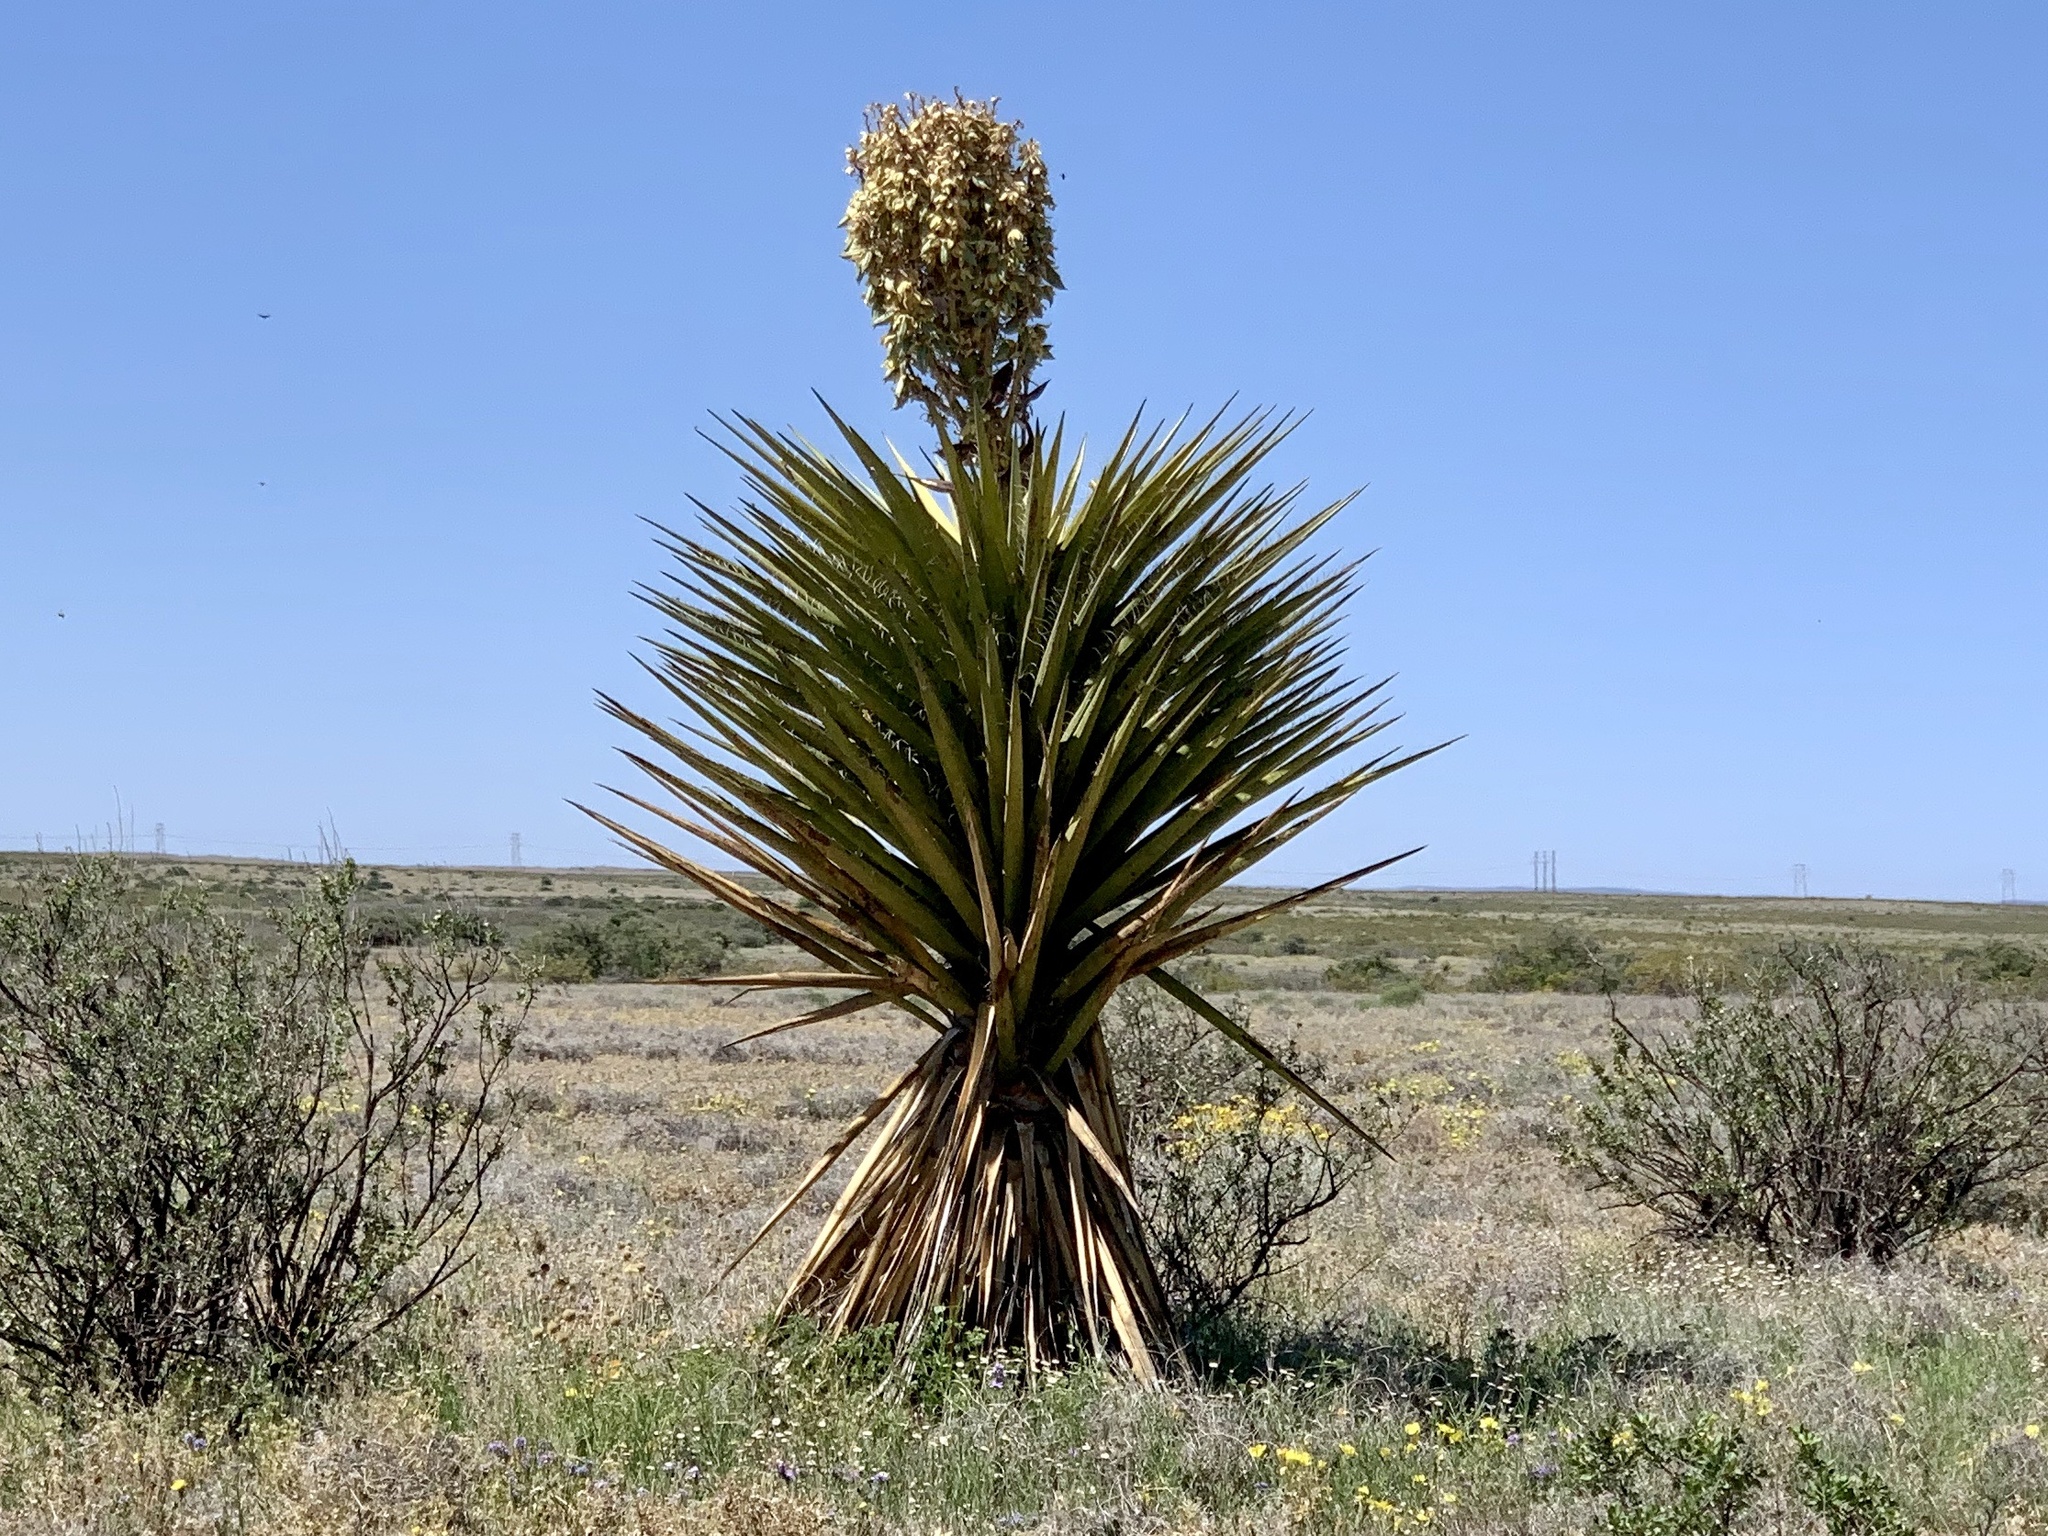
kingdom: Plantae
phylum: Tracheophyta
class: Liliopsida
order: Asparagales
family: Asparagaceae
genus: Yucca
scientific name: Yucca treculiana
